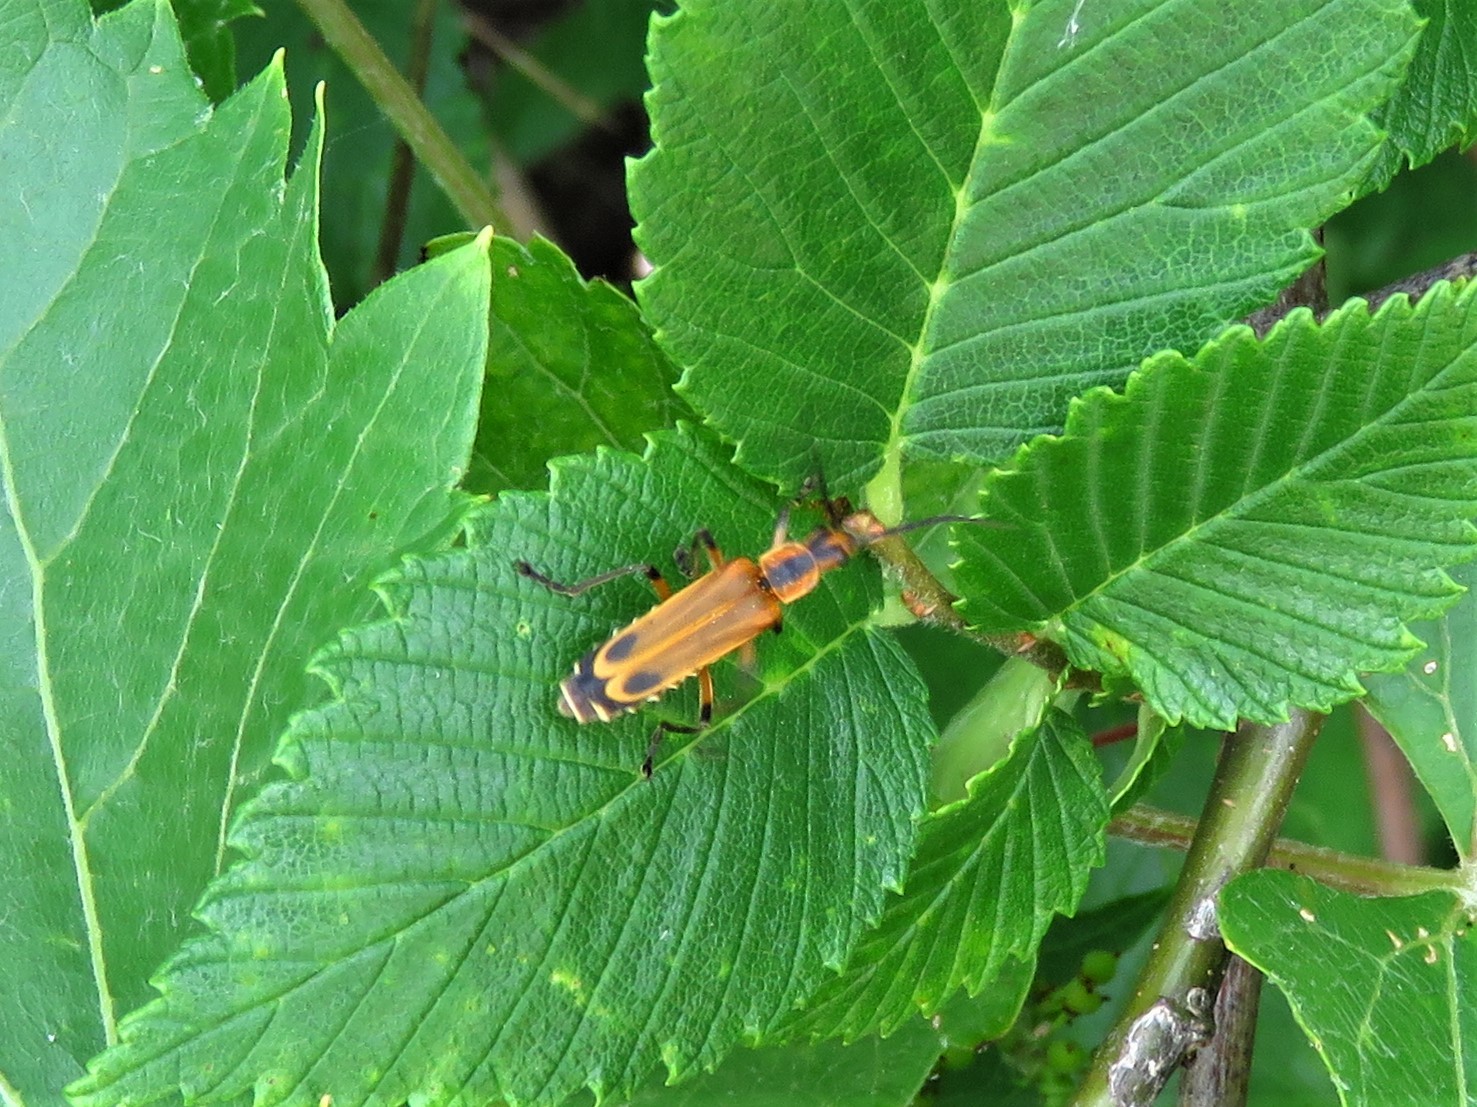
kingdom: Animalia
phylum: Arthropoda
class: Insecta
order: Coleoptera
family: Cantharidae
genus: Chauliognathus
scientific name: Chauliognathus marginatus
